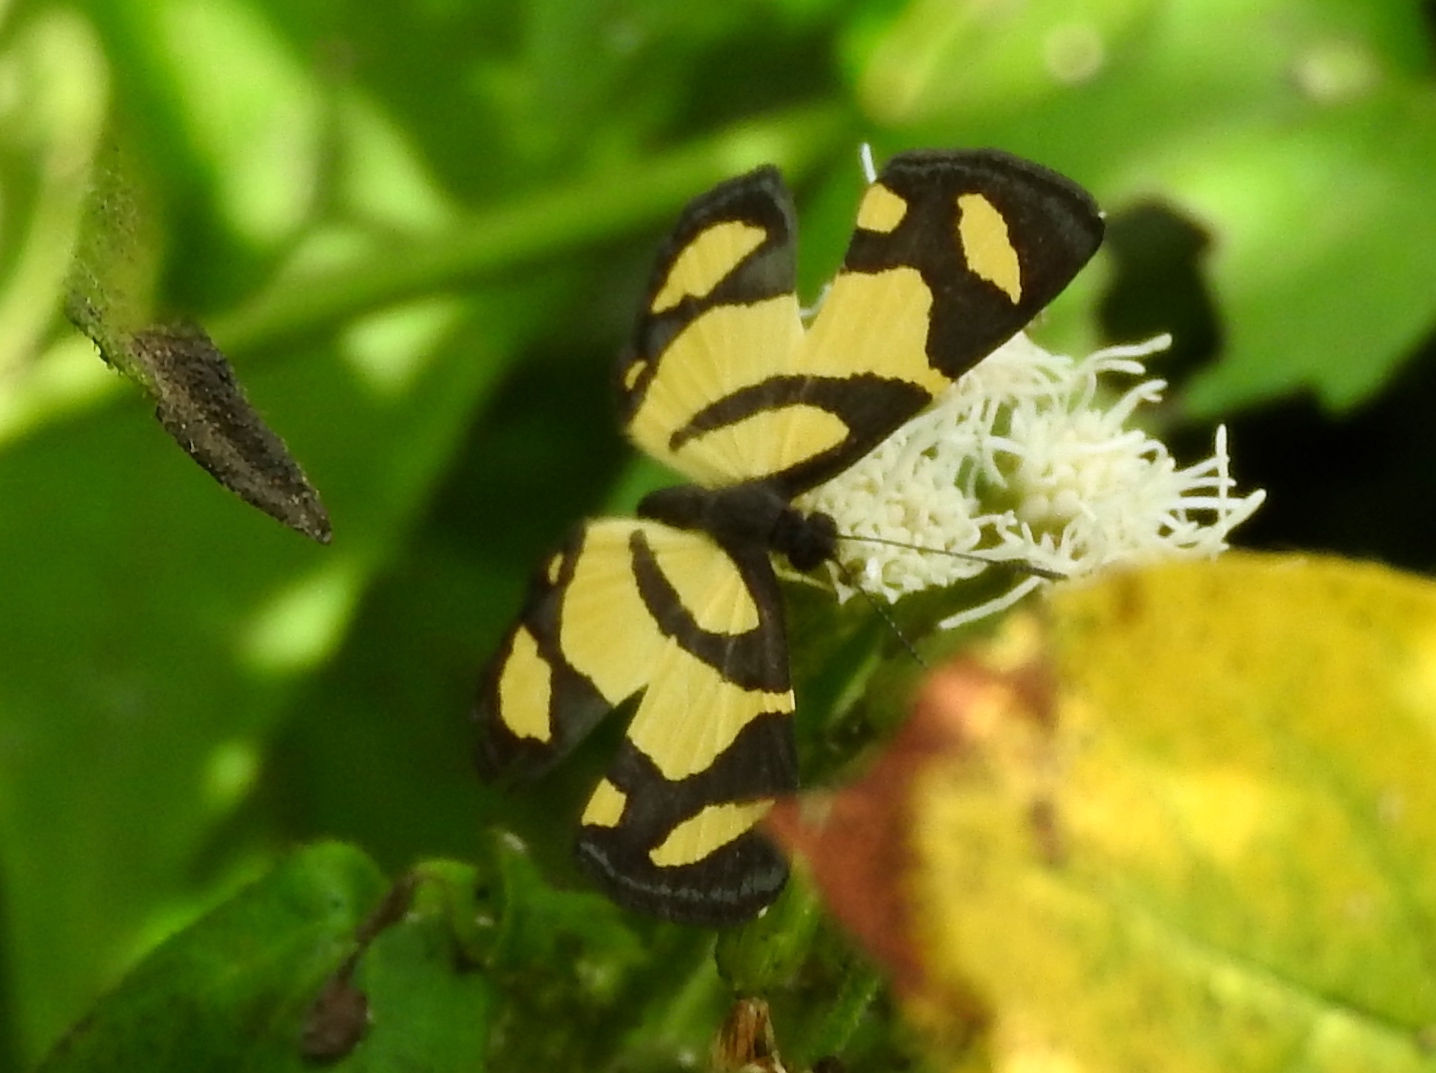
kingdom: Animalia
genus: Baeotis
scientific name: Baeotis zonata
